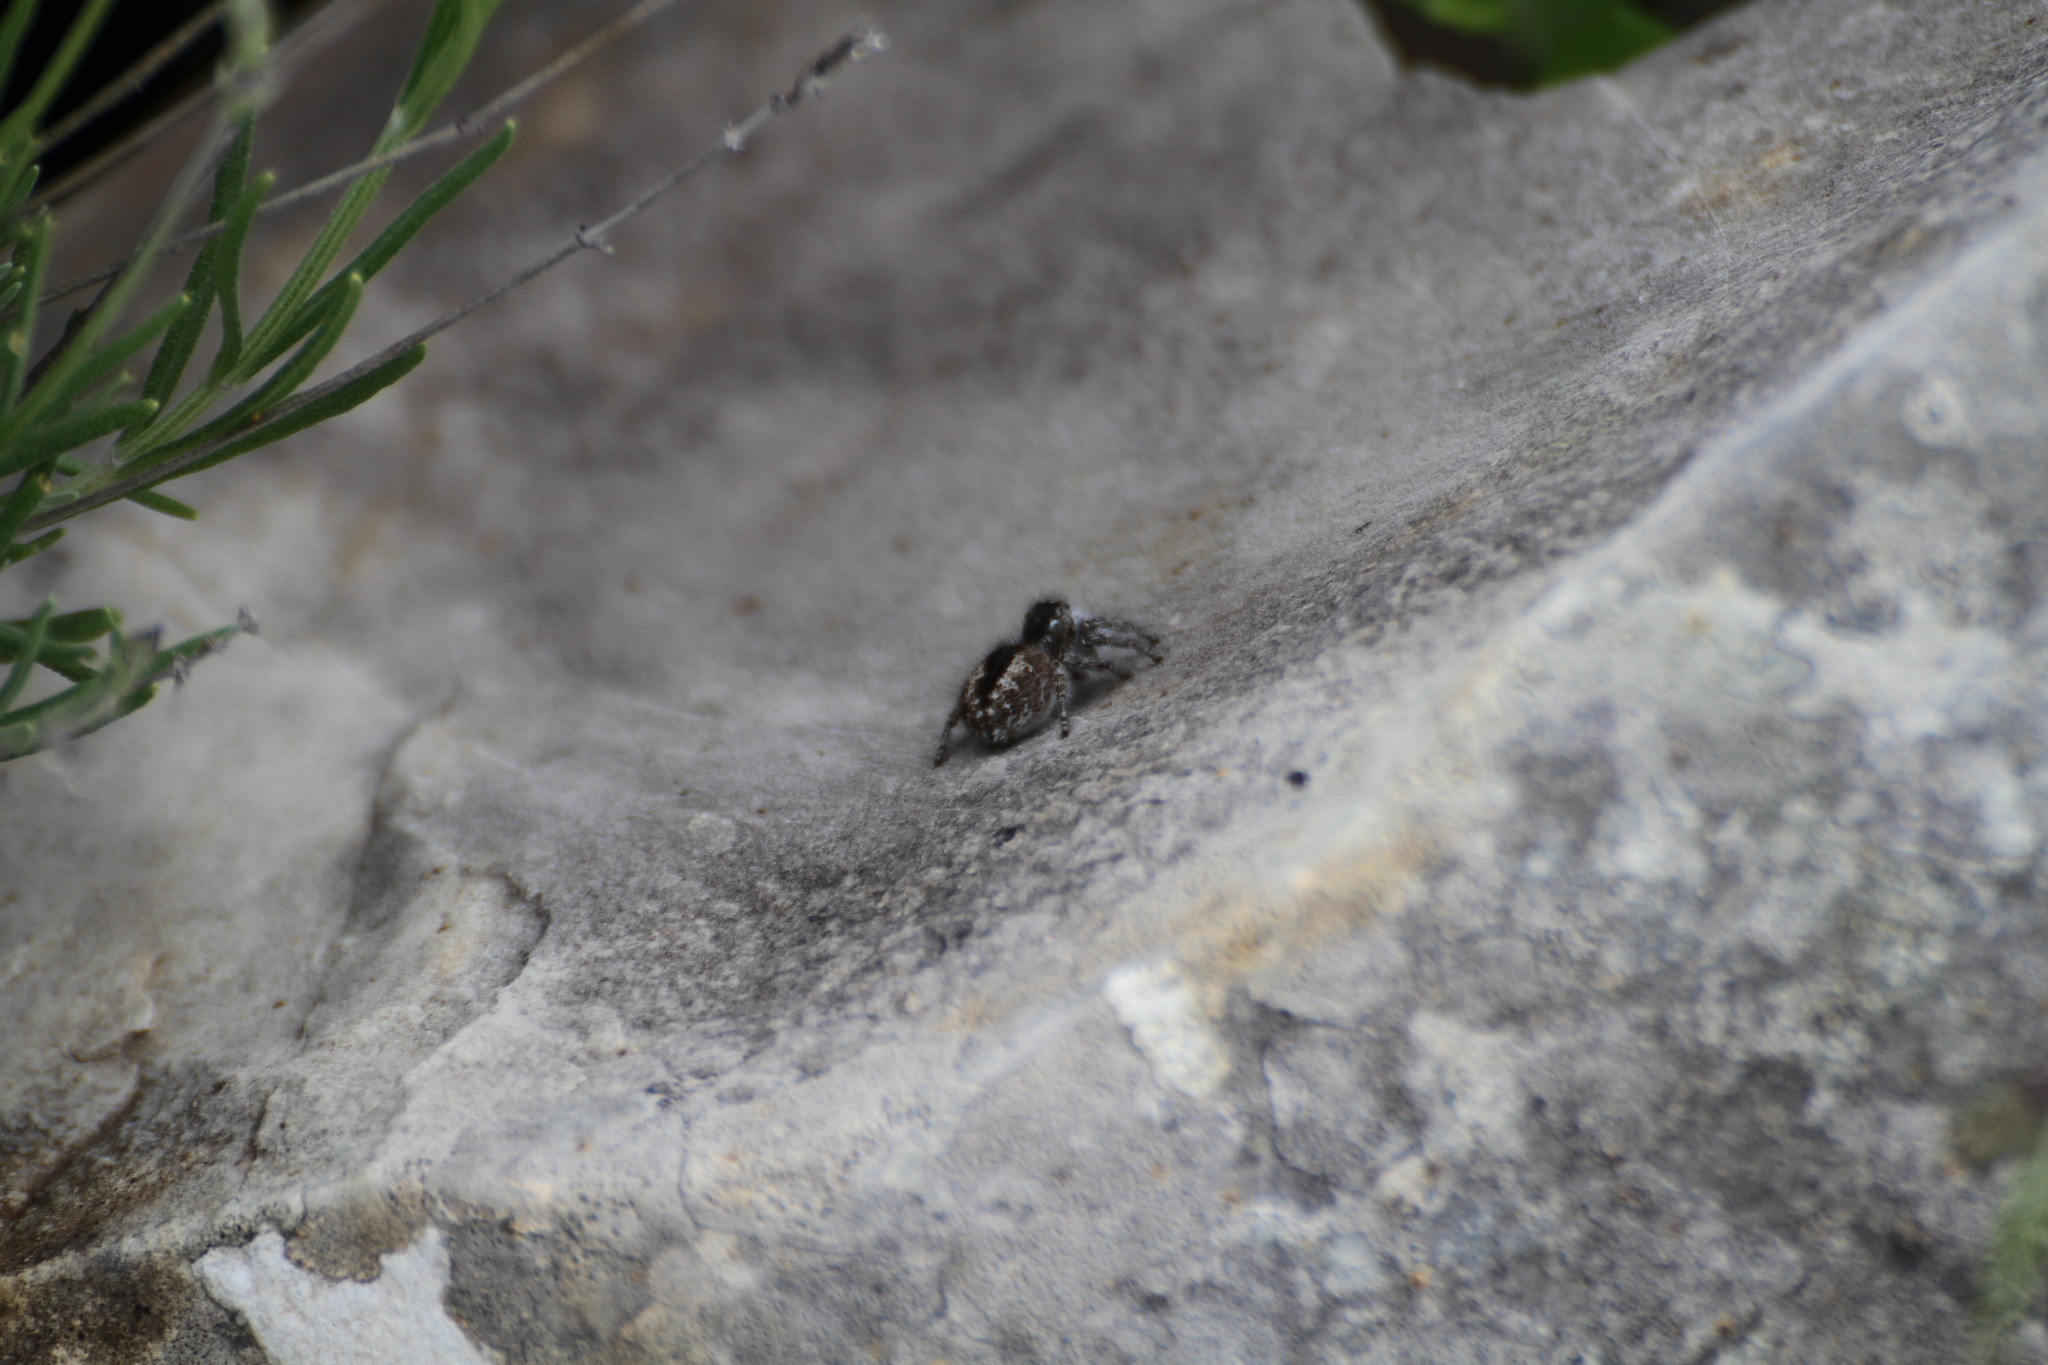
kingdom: Animalia
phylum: Arthropoda
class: Arachnida
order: Araneae
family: Salticidae
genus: Philaeus
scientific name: Philaeus chrysops
